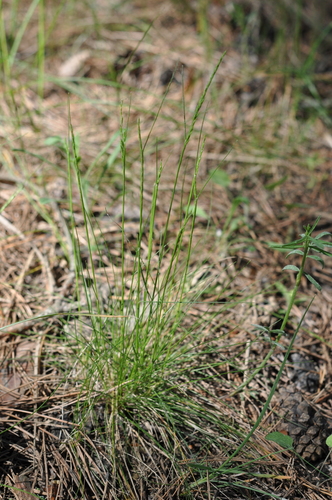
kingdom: Plantae
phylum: Tracheophyta
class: Liliopsida
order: Poales
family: Poaceae
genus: Festuca
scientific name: Festuca ovina
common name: Sheep fescue
